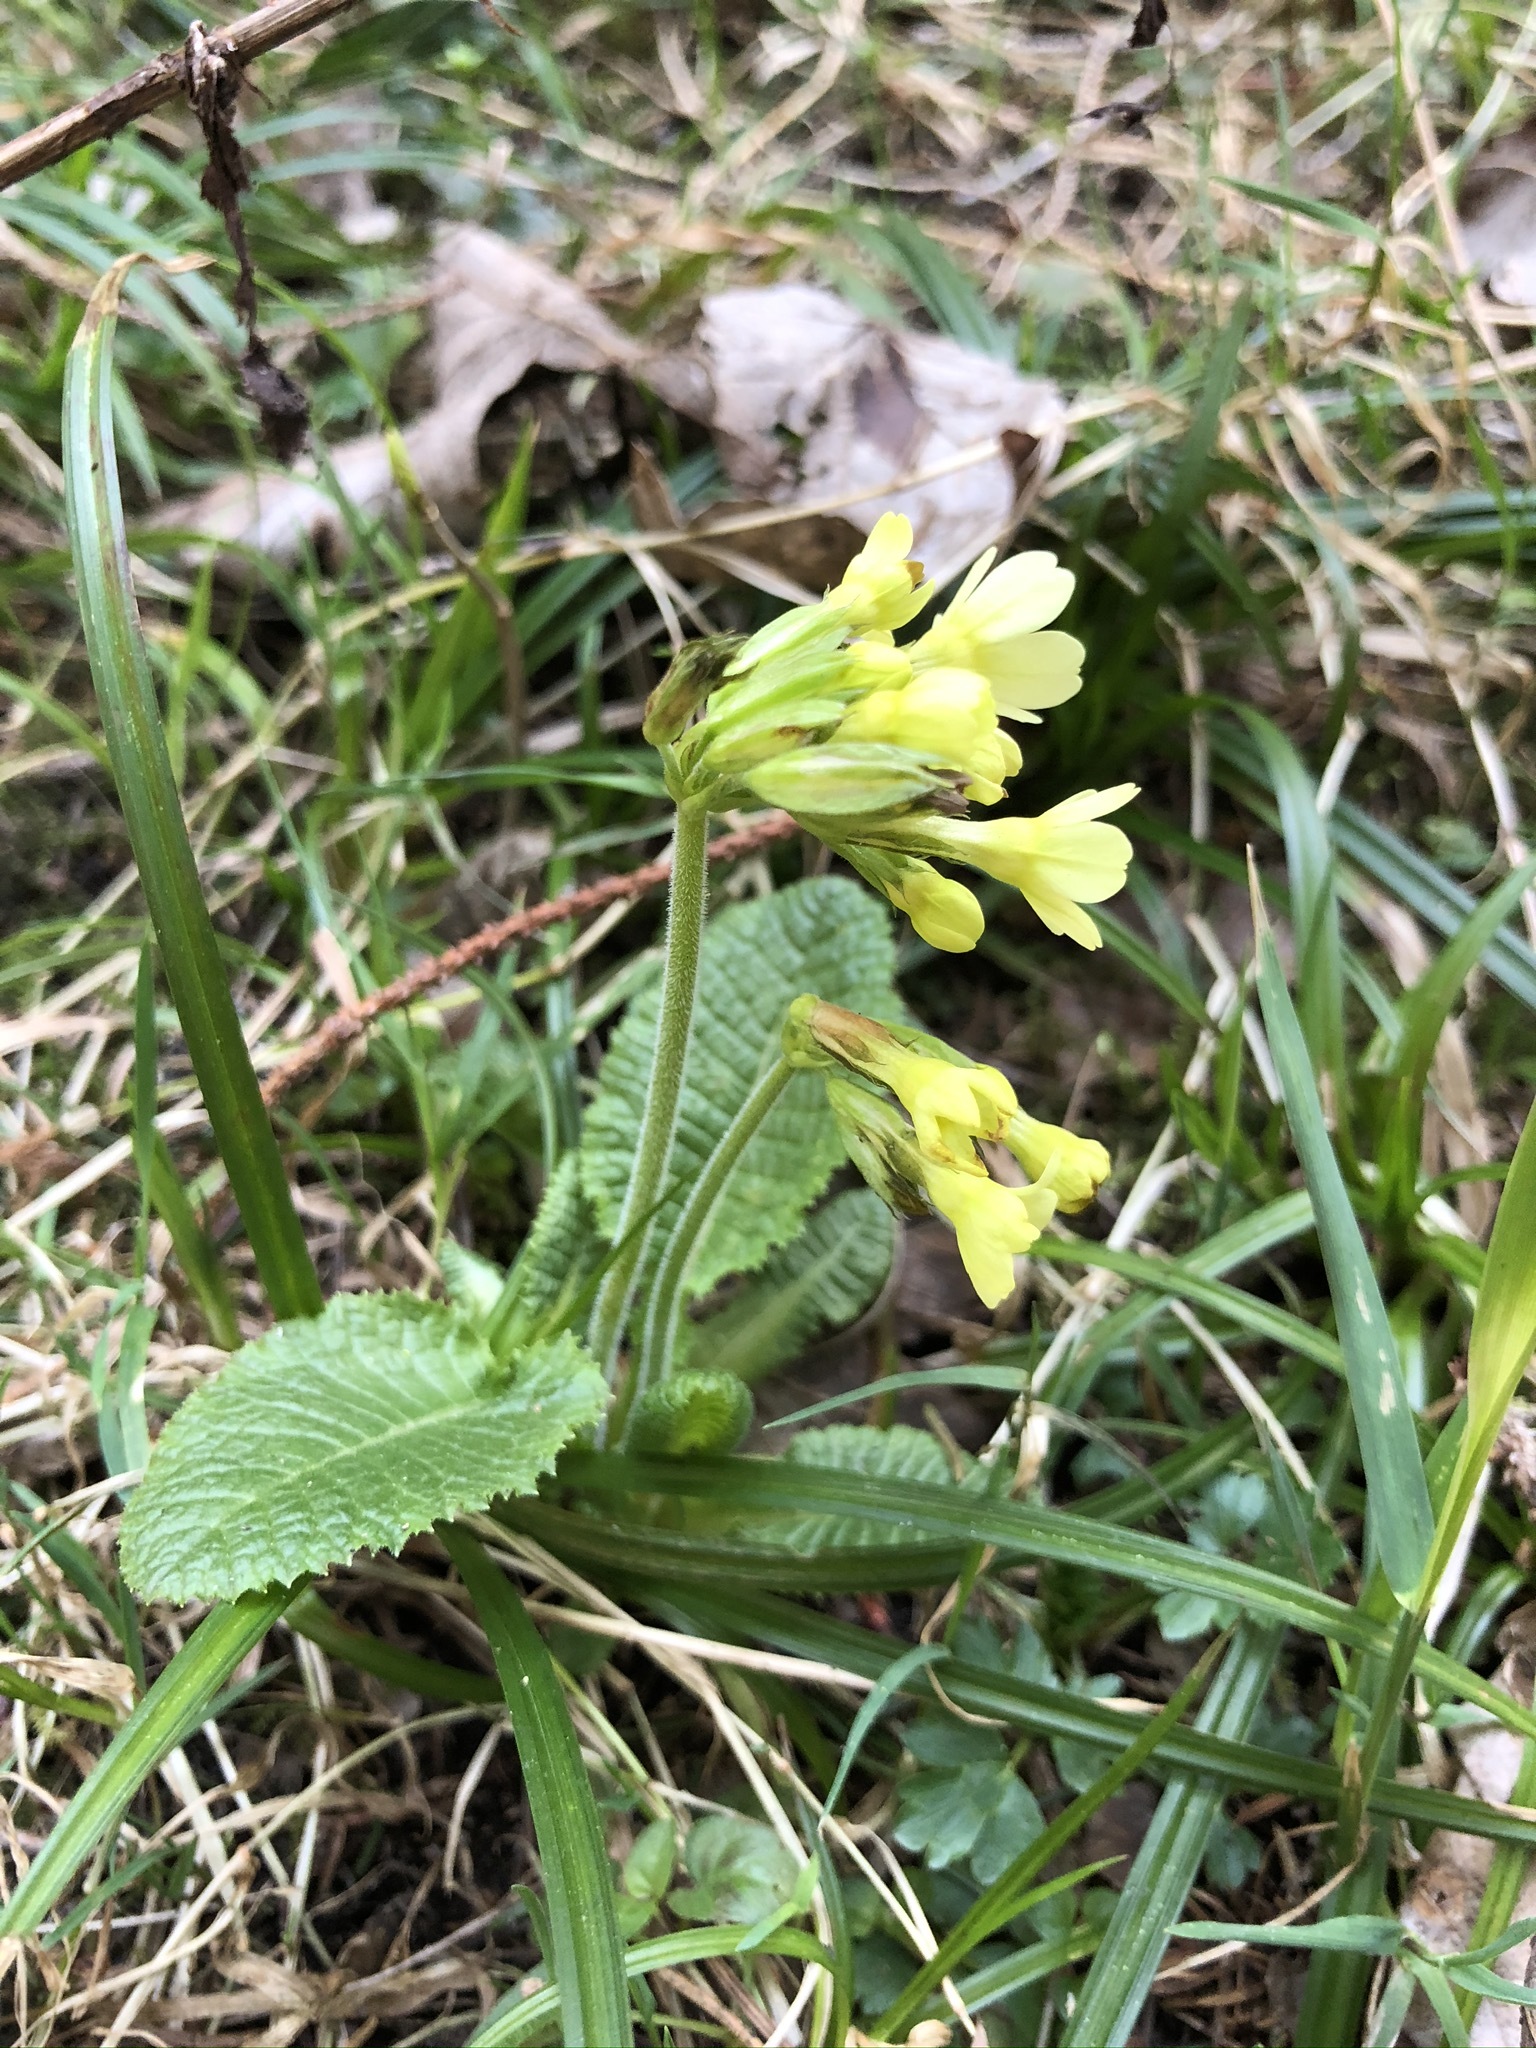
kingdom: Plantae
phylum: Tracheophyta
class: Magnoliopsida
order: Ericales
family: Primulaceae
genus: Primula
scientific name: Primula elatior
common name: Oxlip
